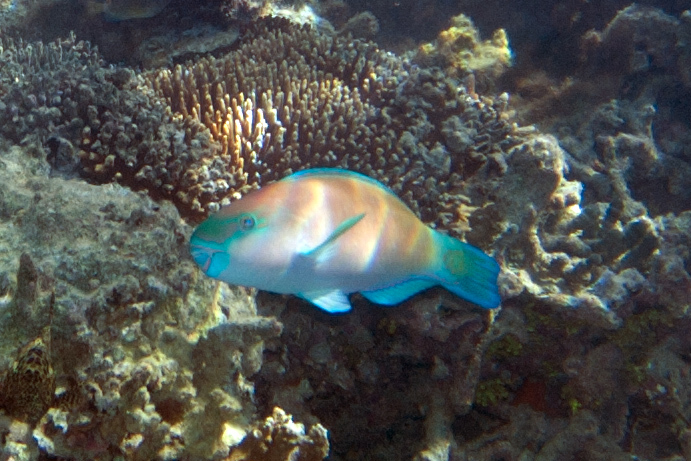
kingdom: Animalia
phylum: Chordata
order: Perciformes
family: Scaridae
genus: Chlorurus
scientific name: Chlorurus spilurus
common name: Bullethead parrotfish
